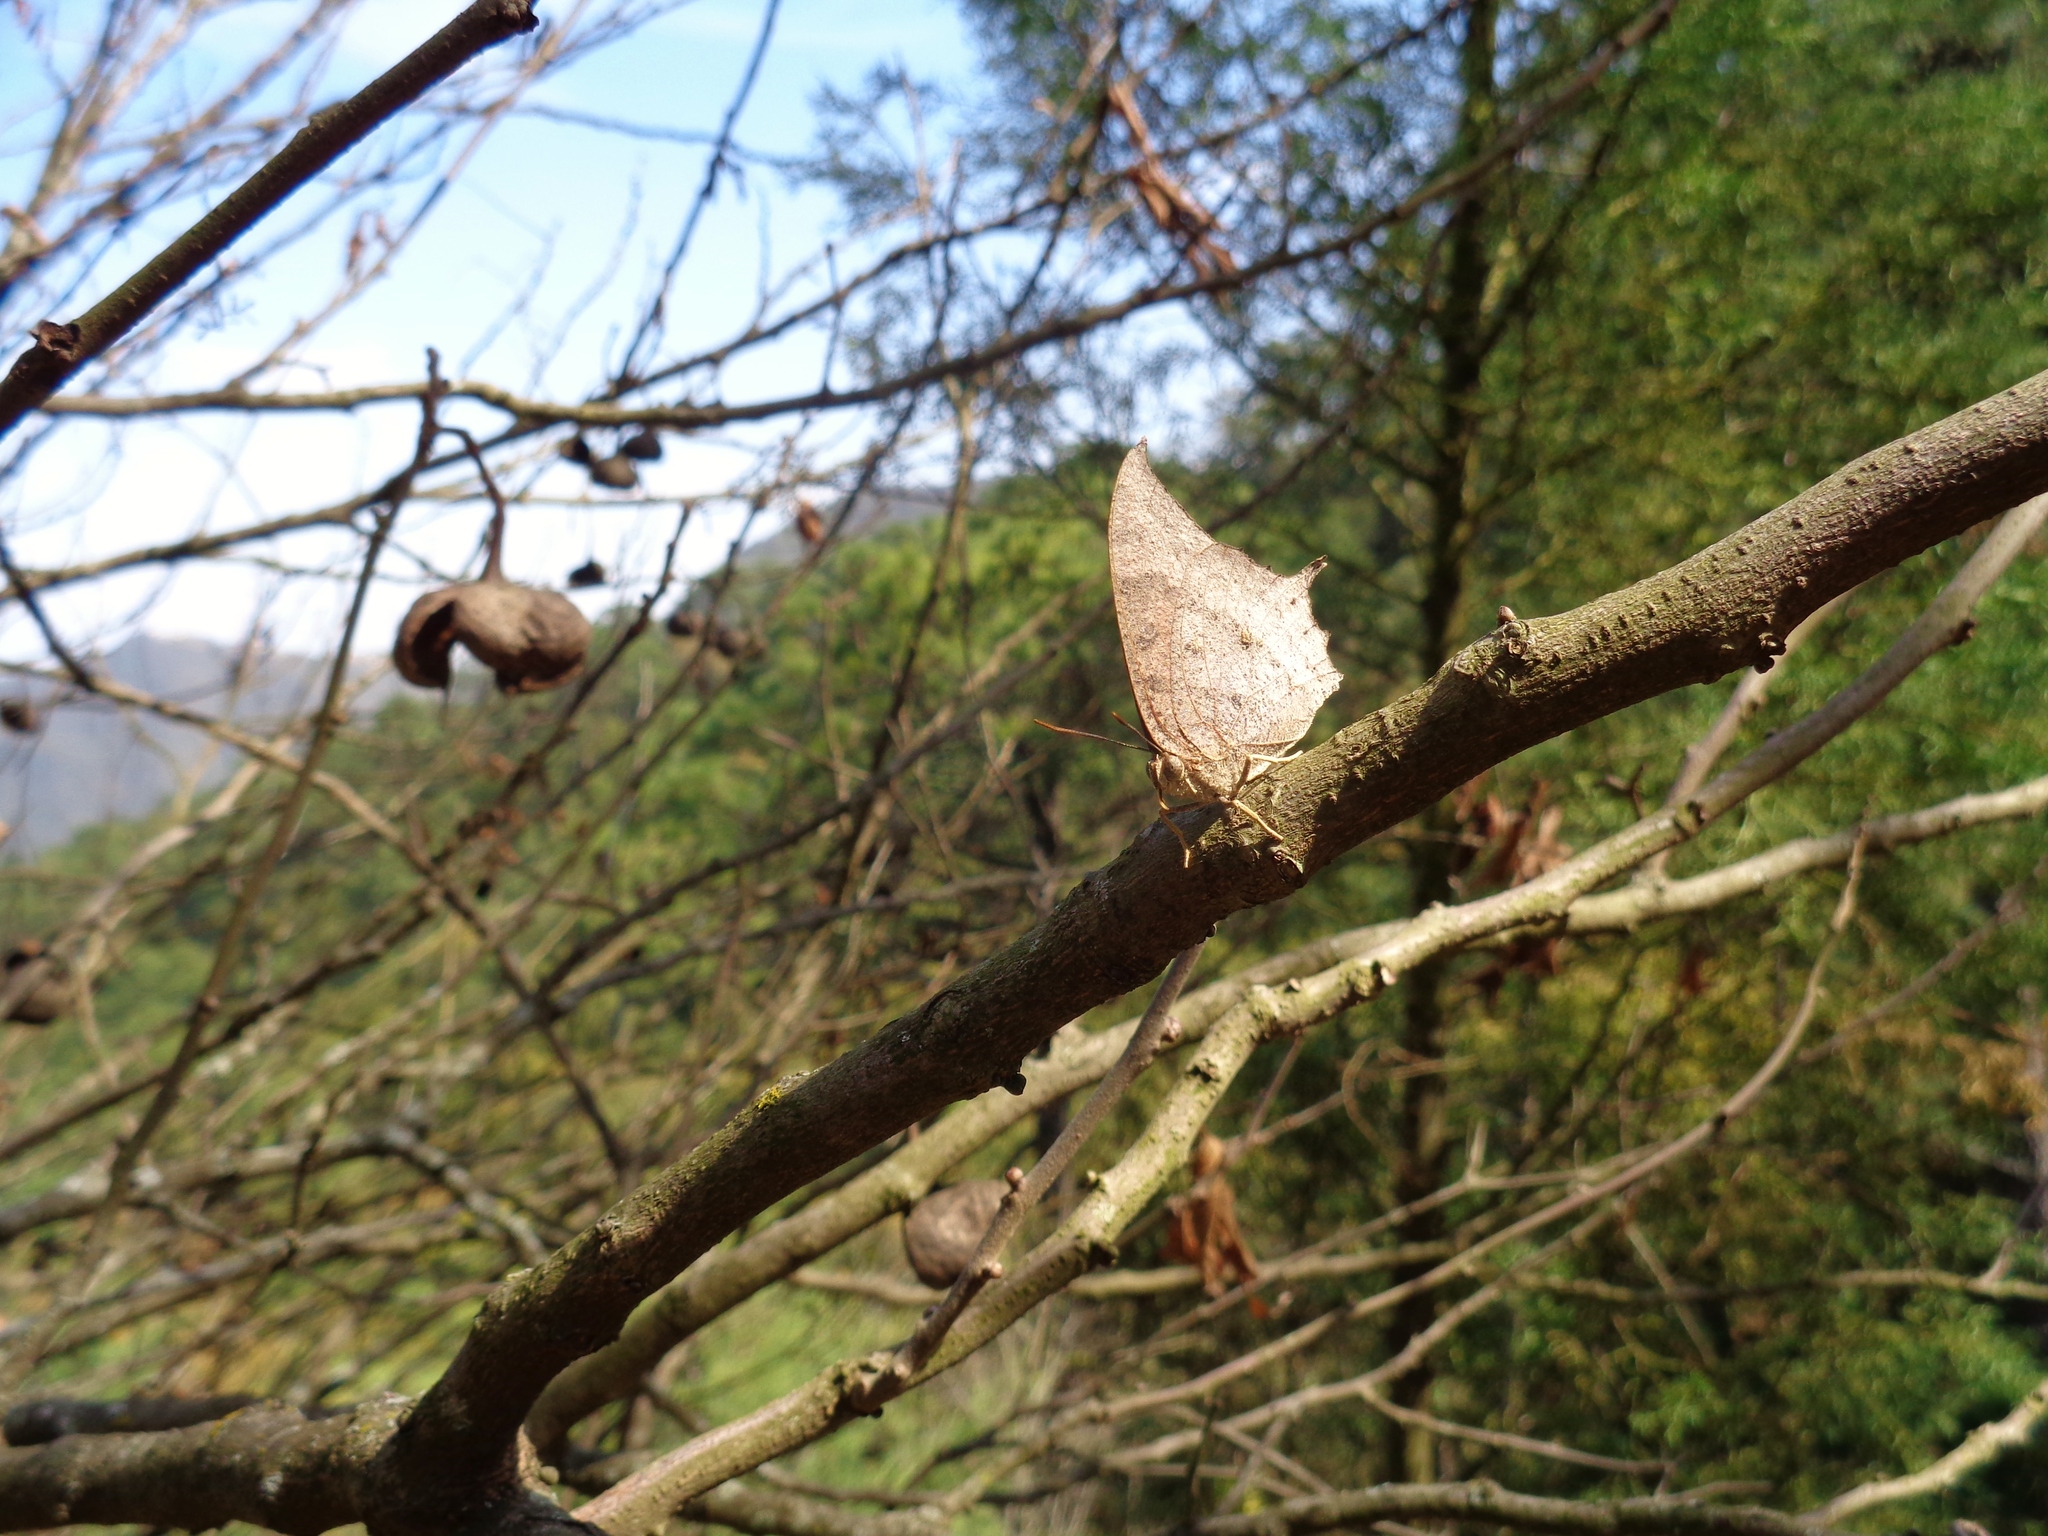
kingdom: Animalia
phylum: Arthropoda
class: Insecta
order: Lepidoptera
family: Nymphalidae
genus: Anaea
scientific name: Anaea andria
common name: Goatweed leafwing
